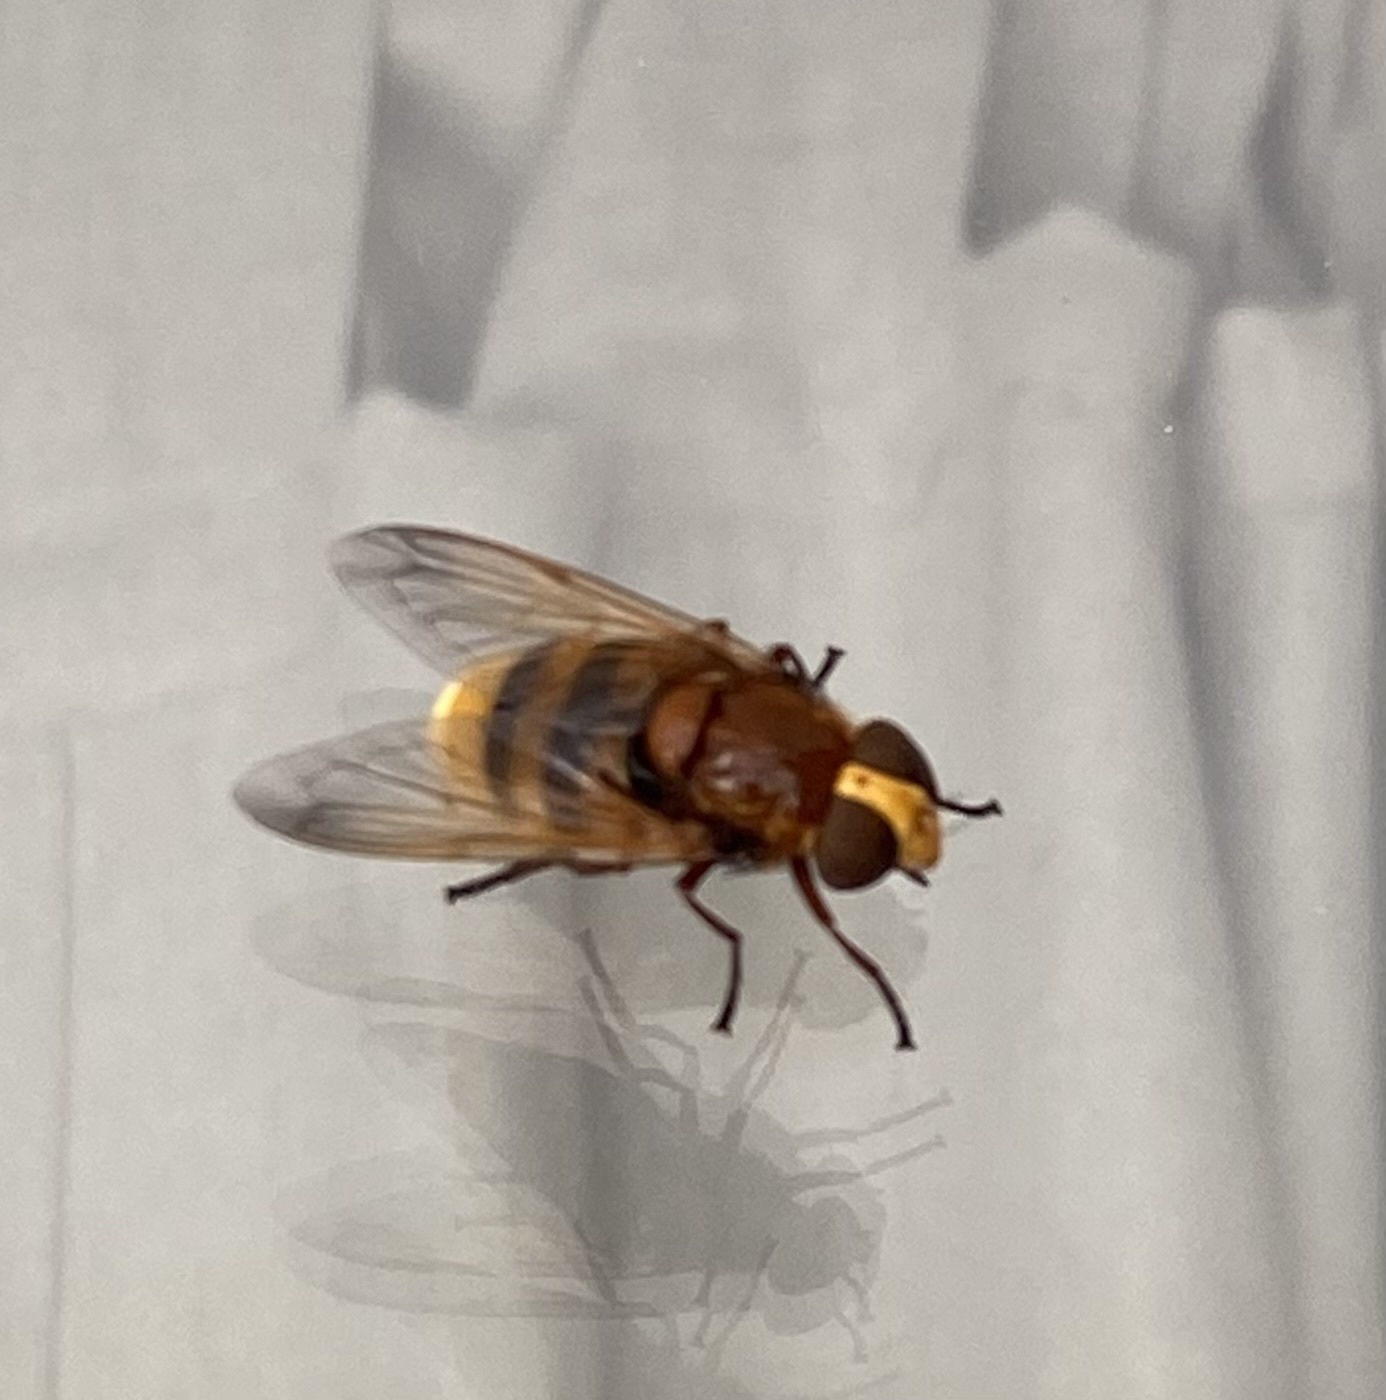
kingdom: Animalia
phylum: Arthropoda
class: Insecta
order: Diptera
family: Syrphidae
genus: Volucella
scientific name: Volucella zonaria
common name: Hornet hoverfly
